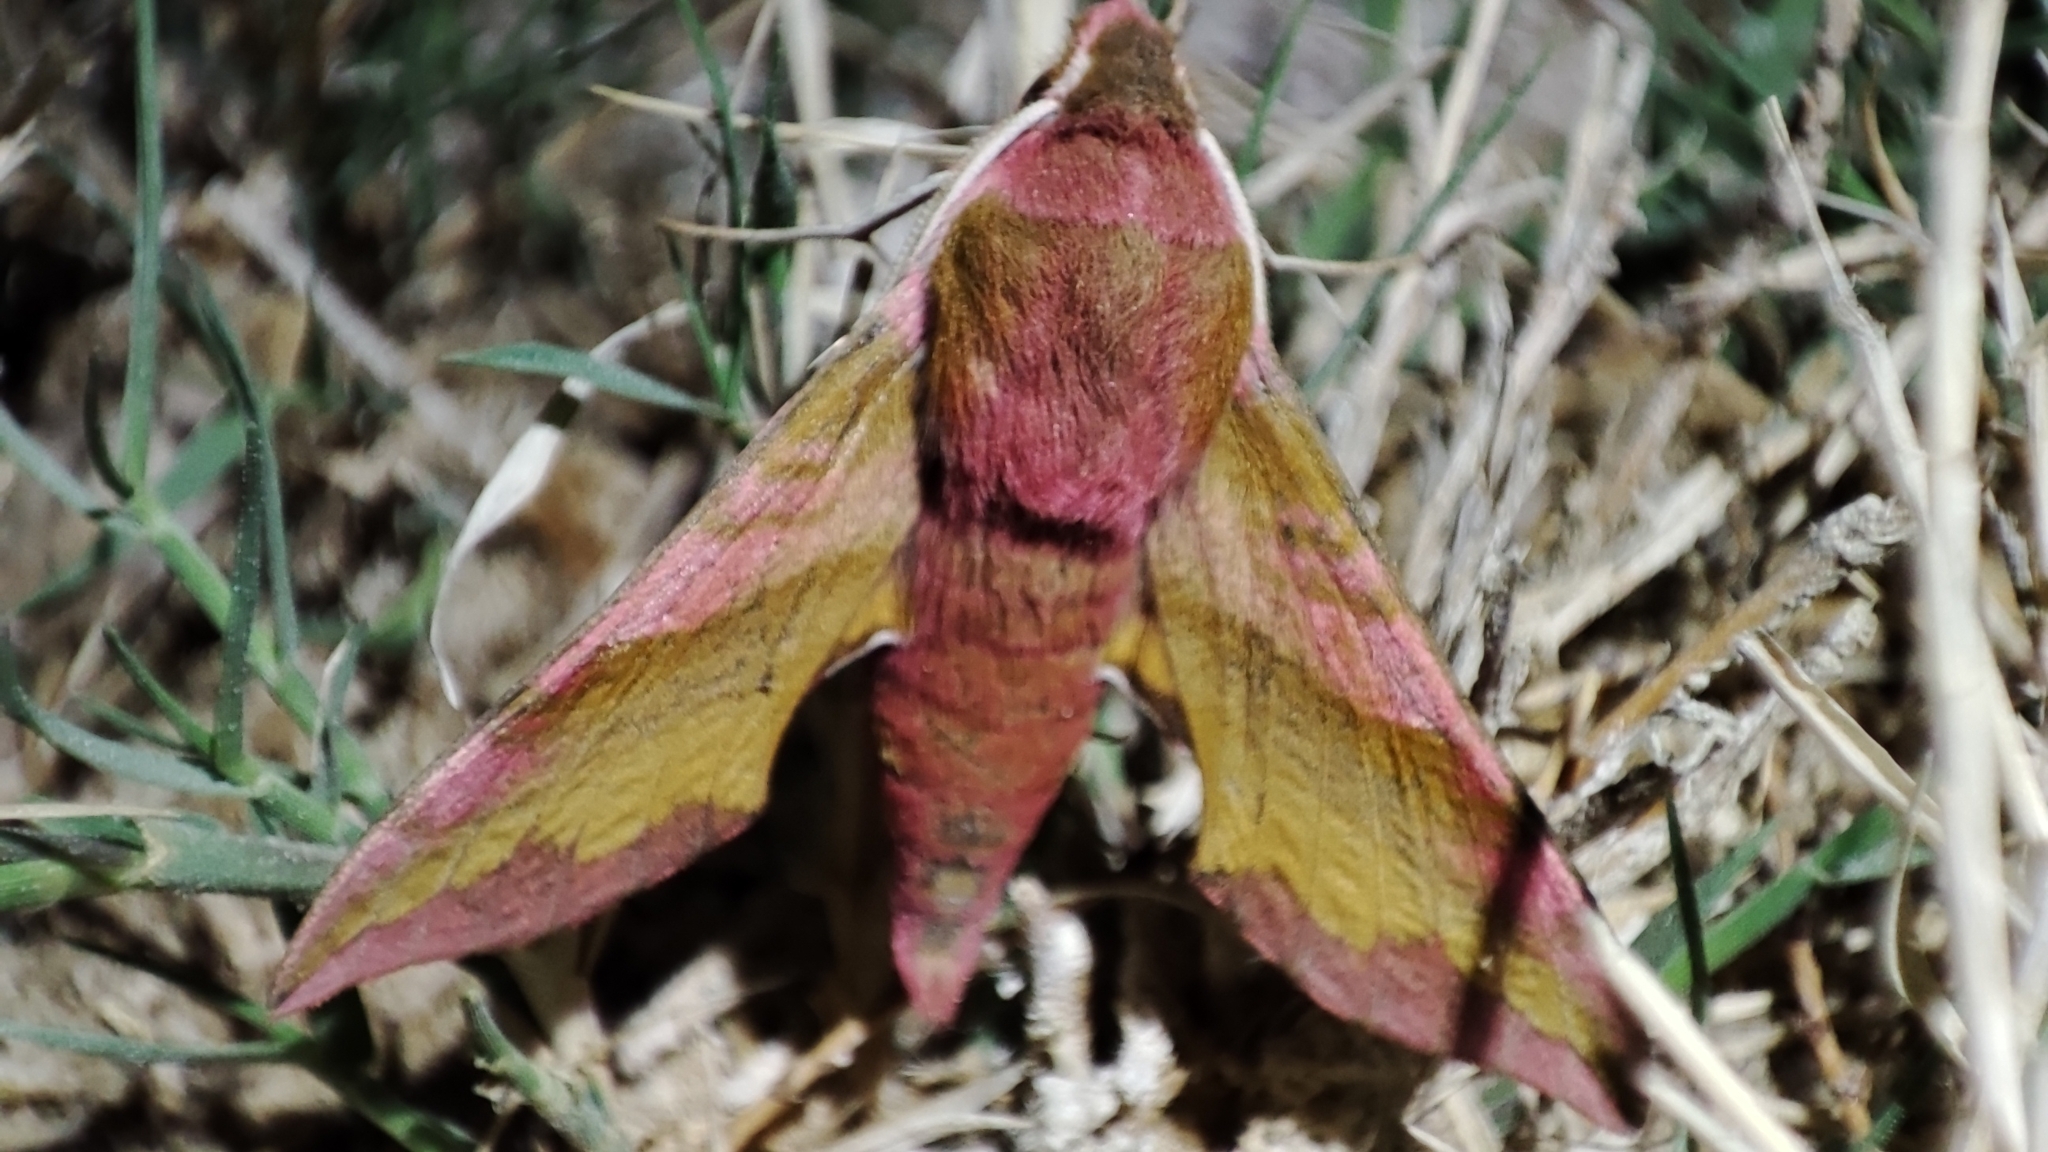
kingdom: Animalia
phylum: Arthropoda
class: Insecta
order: Lepidoptera
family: Sphingidae
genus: Deilephila
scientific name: Deilephila porcellus
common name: Small elephant hawk-moth
